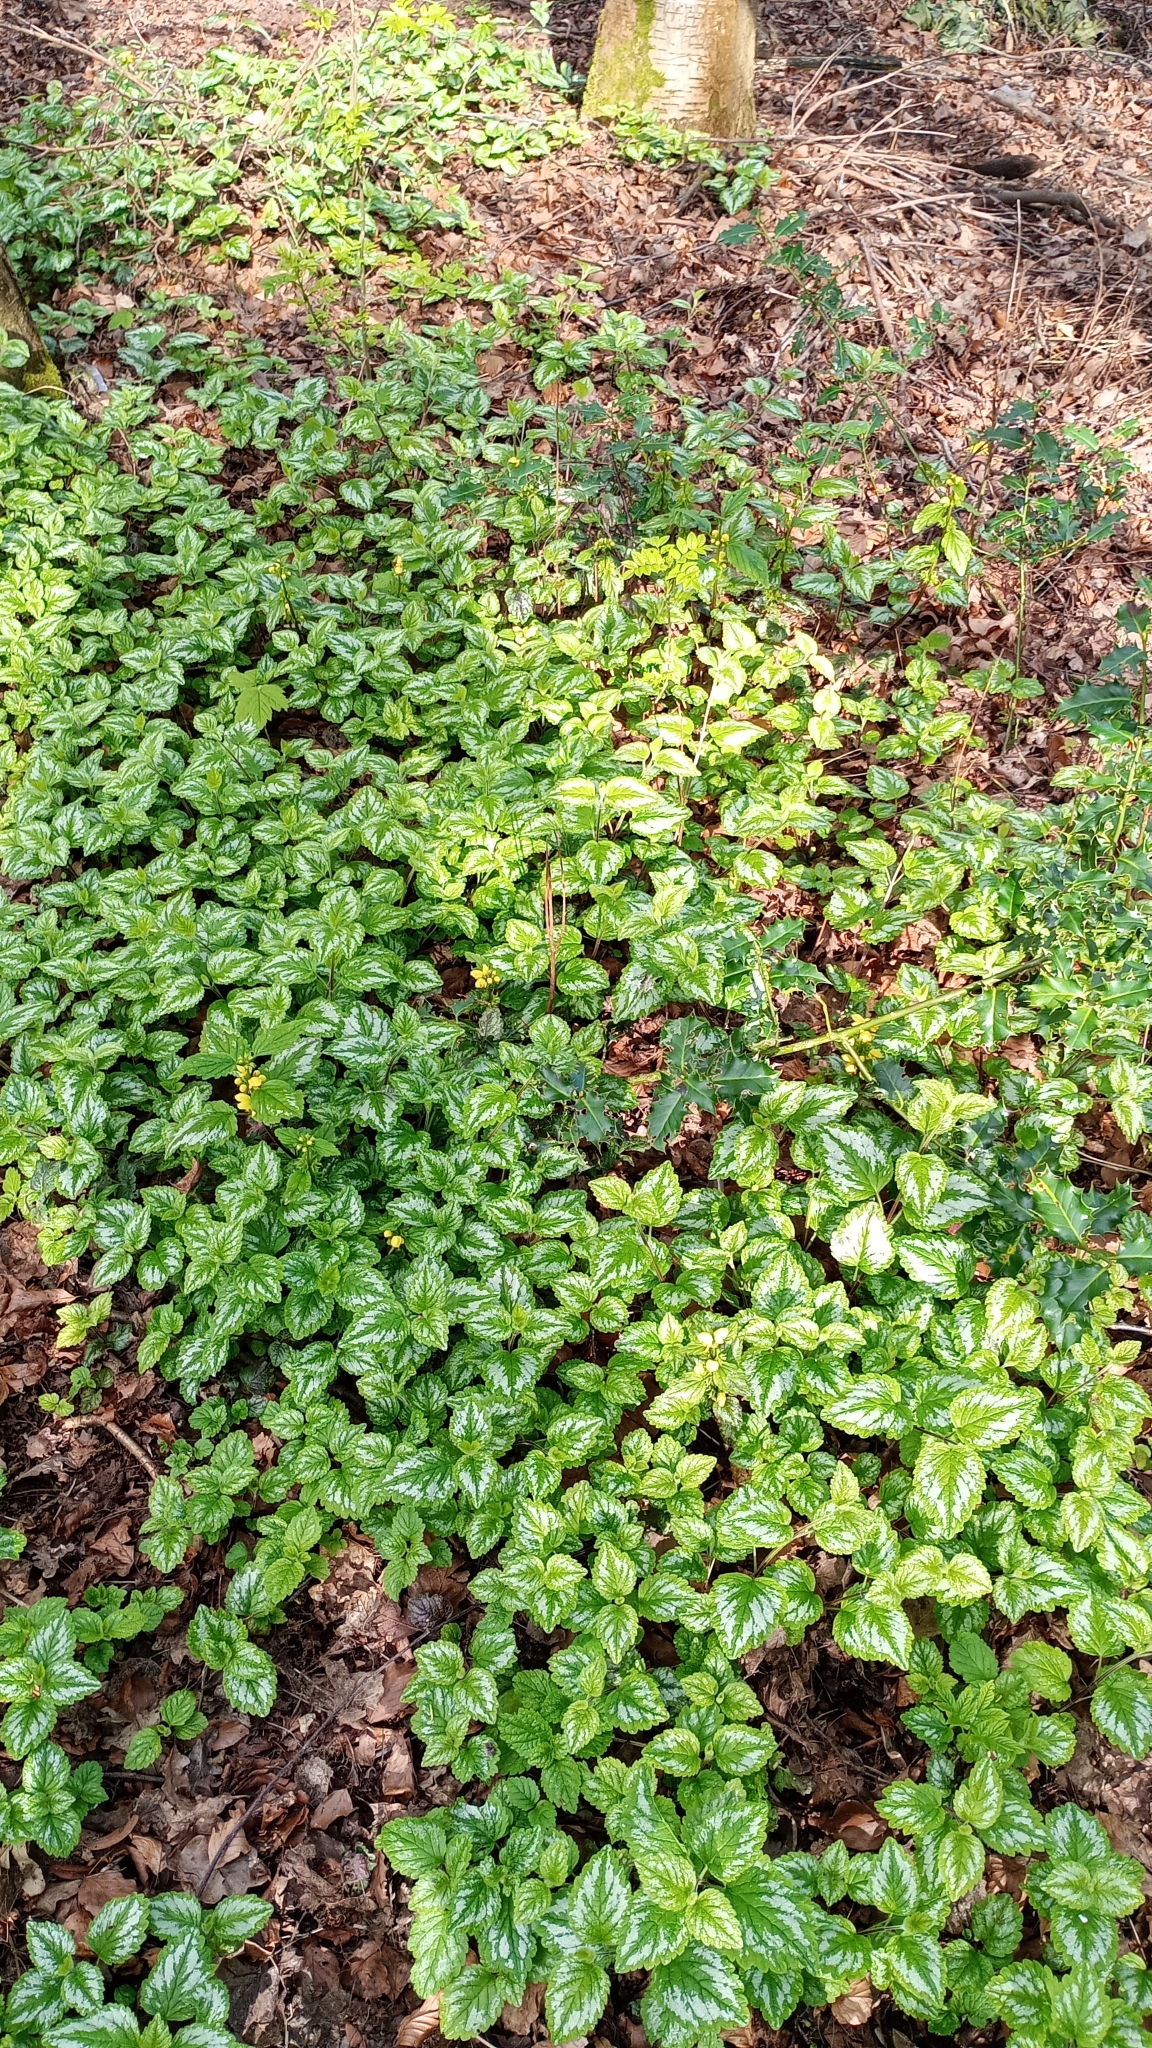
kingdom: Plantae
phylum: Tracheophyta
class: Magnoliopsida
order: Lamiales
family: Lamiaceae
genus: Lamium
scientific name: Lamium galeobdolon
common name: Yellow archangel
